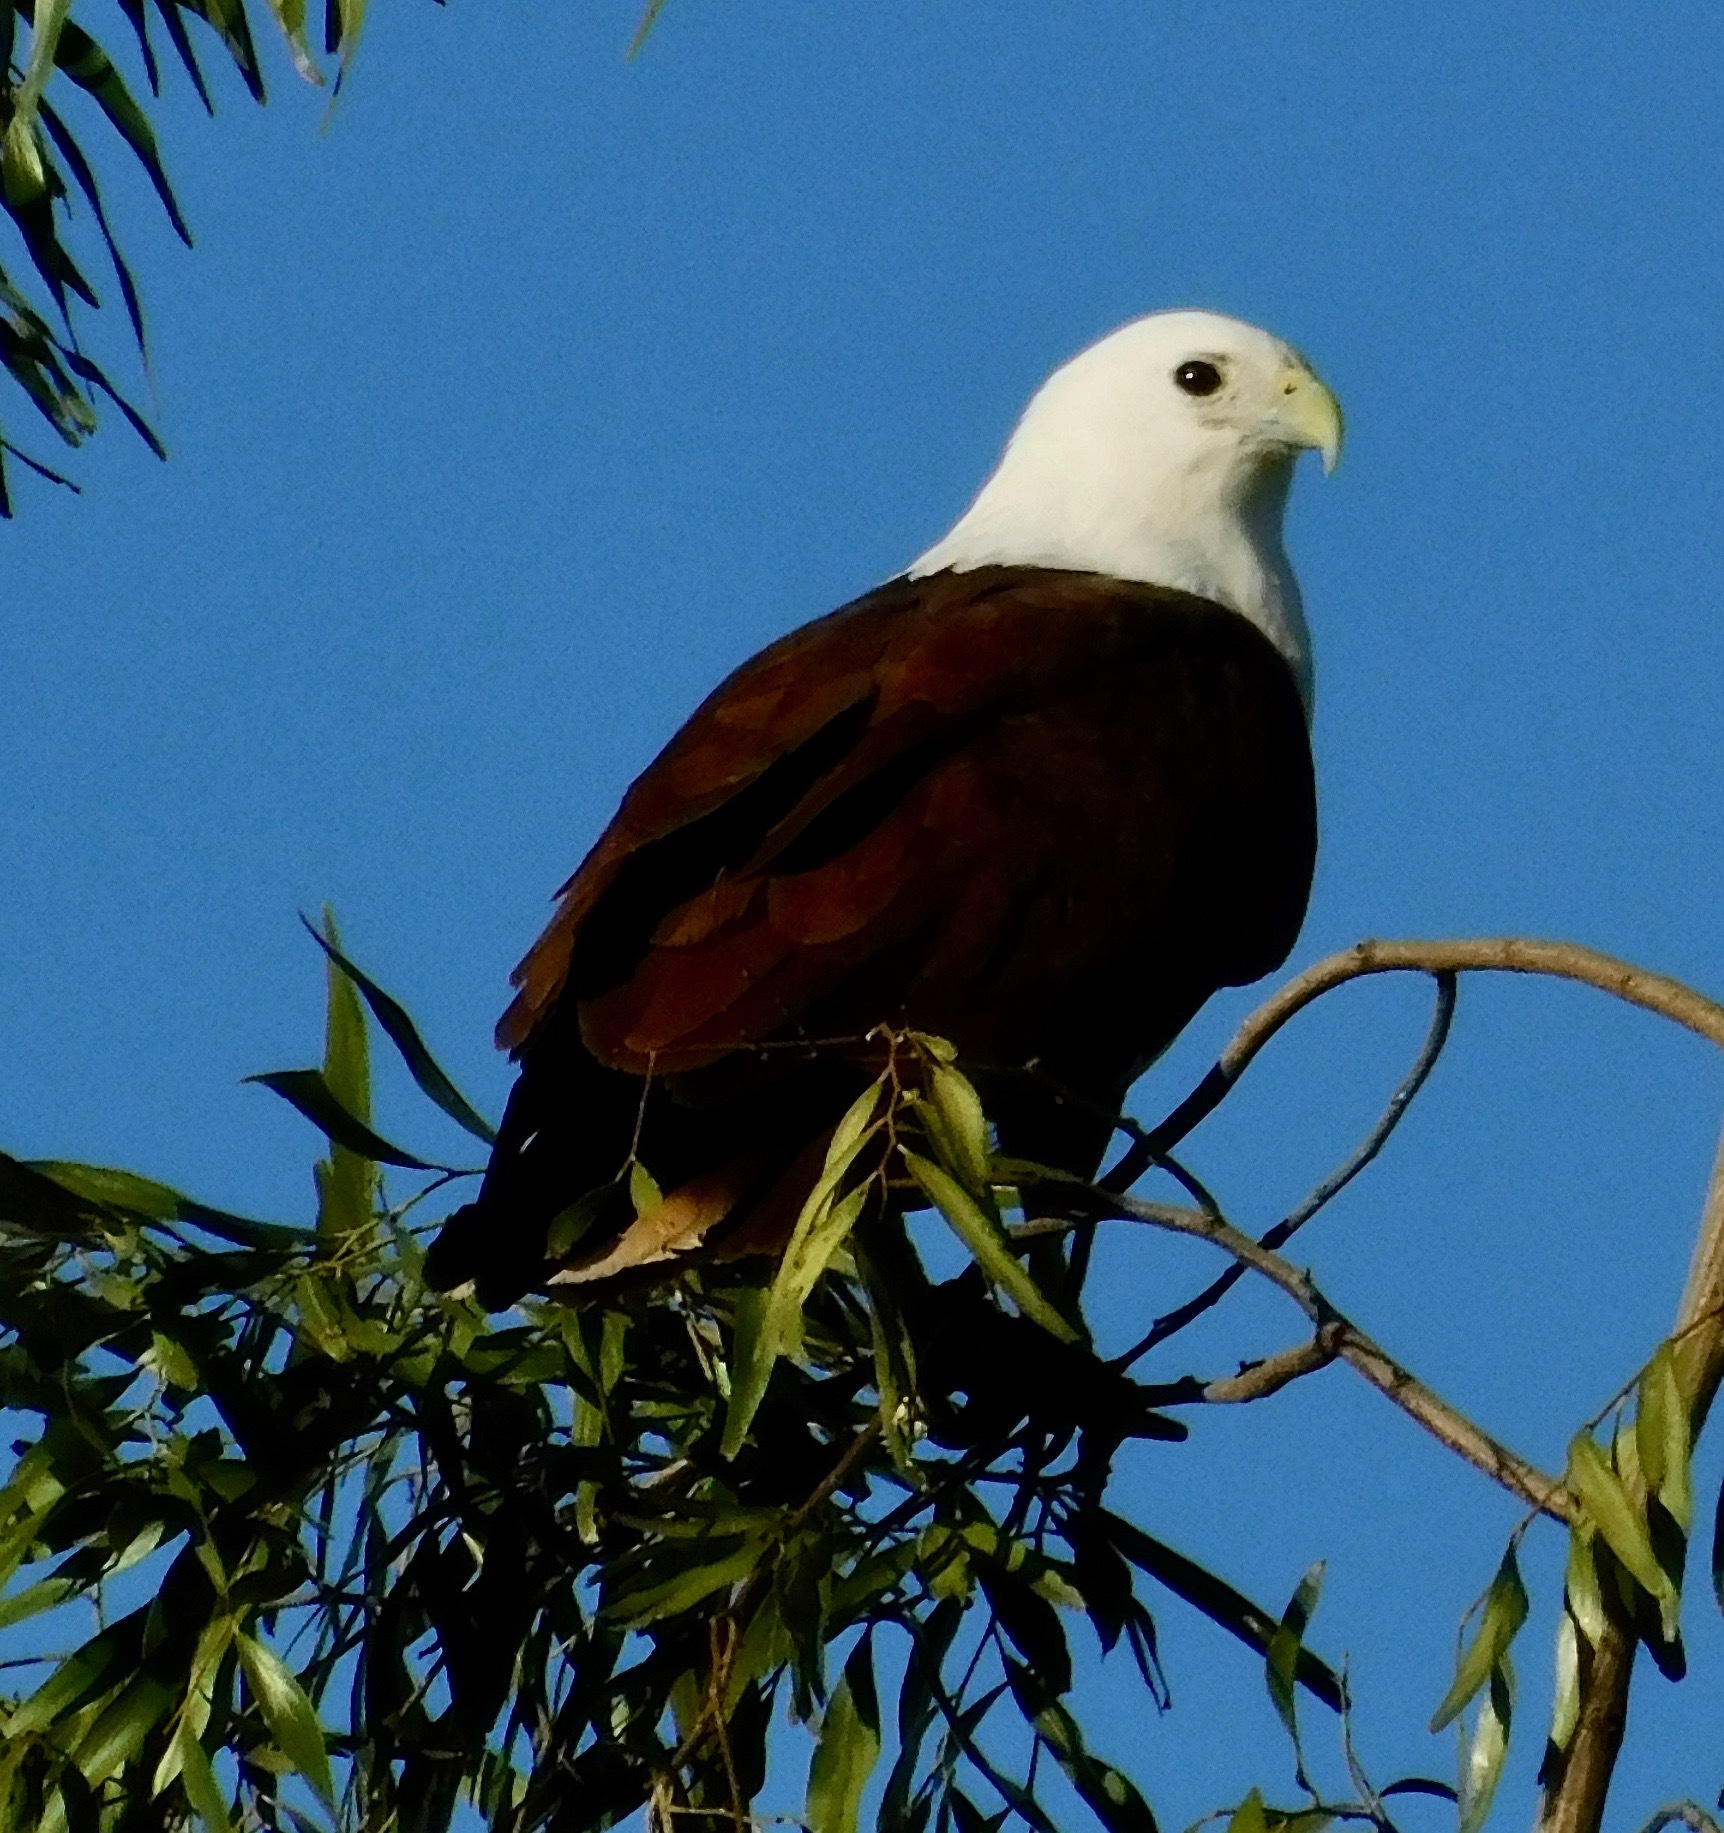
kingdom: Animalia
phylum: Chordata
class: Aves
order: Accipitriformes
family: Accipitridae
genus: Haliastur
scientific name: Haliastur indus
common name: Brahminy kite
